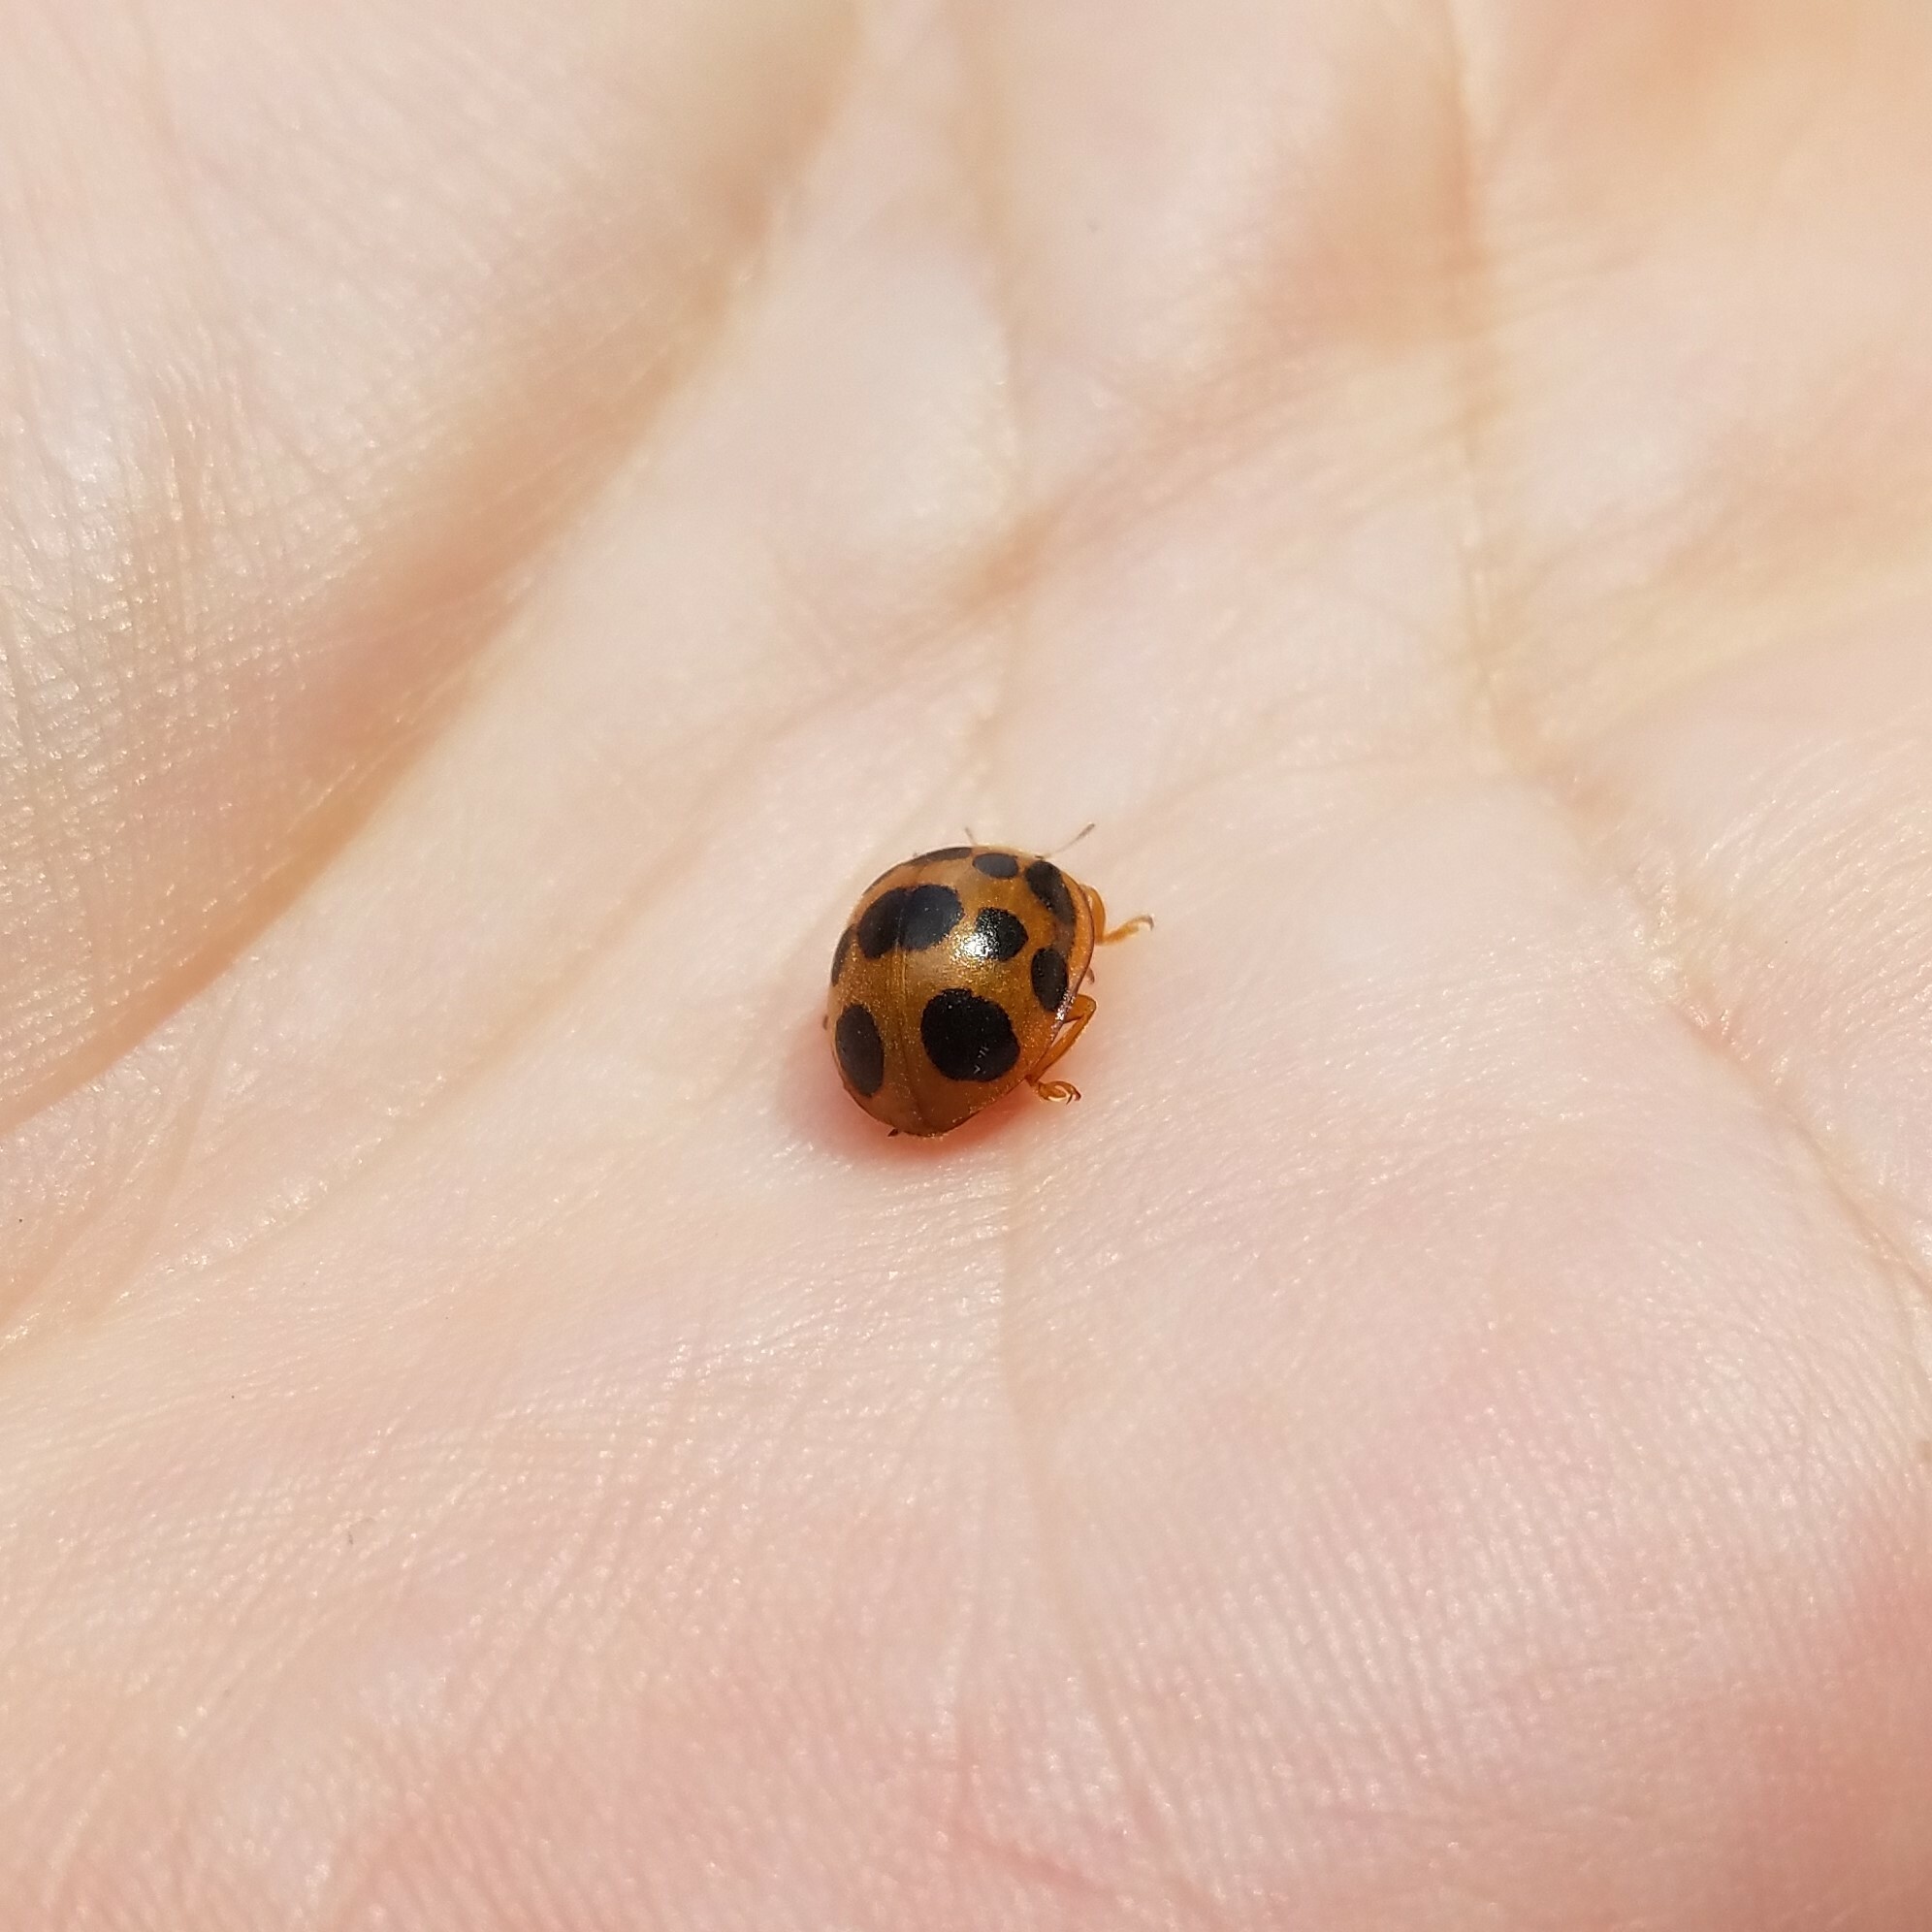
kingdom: Animalia
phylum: Arthropoda
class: Insecta
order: Coleoptera
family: Coccinellidae
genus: Epilachna
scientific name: Epilachna borealis
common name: Squash beetle
